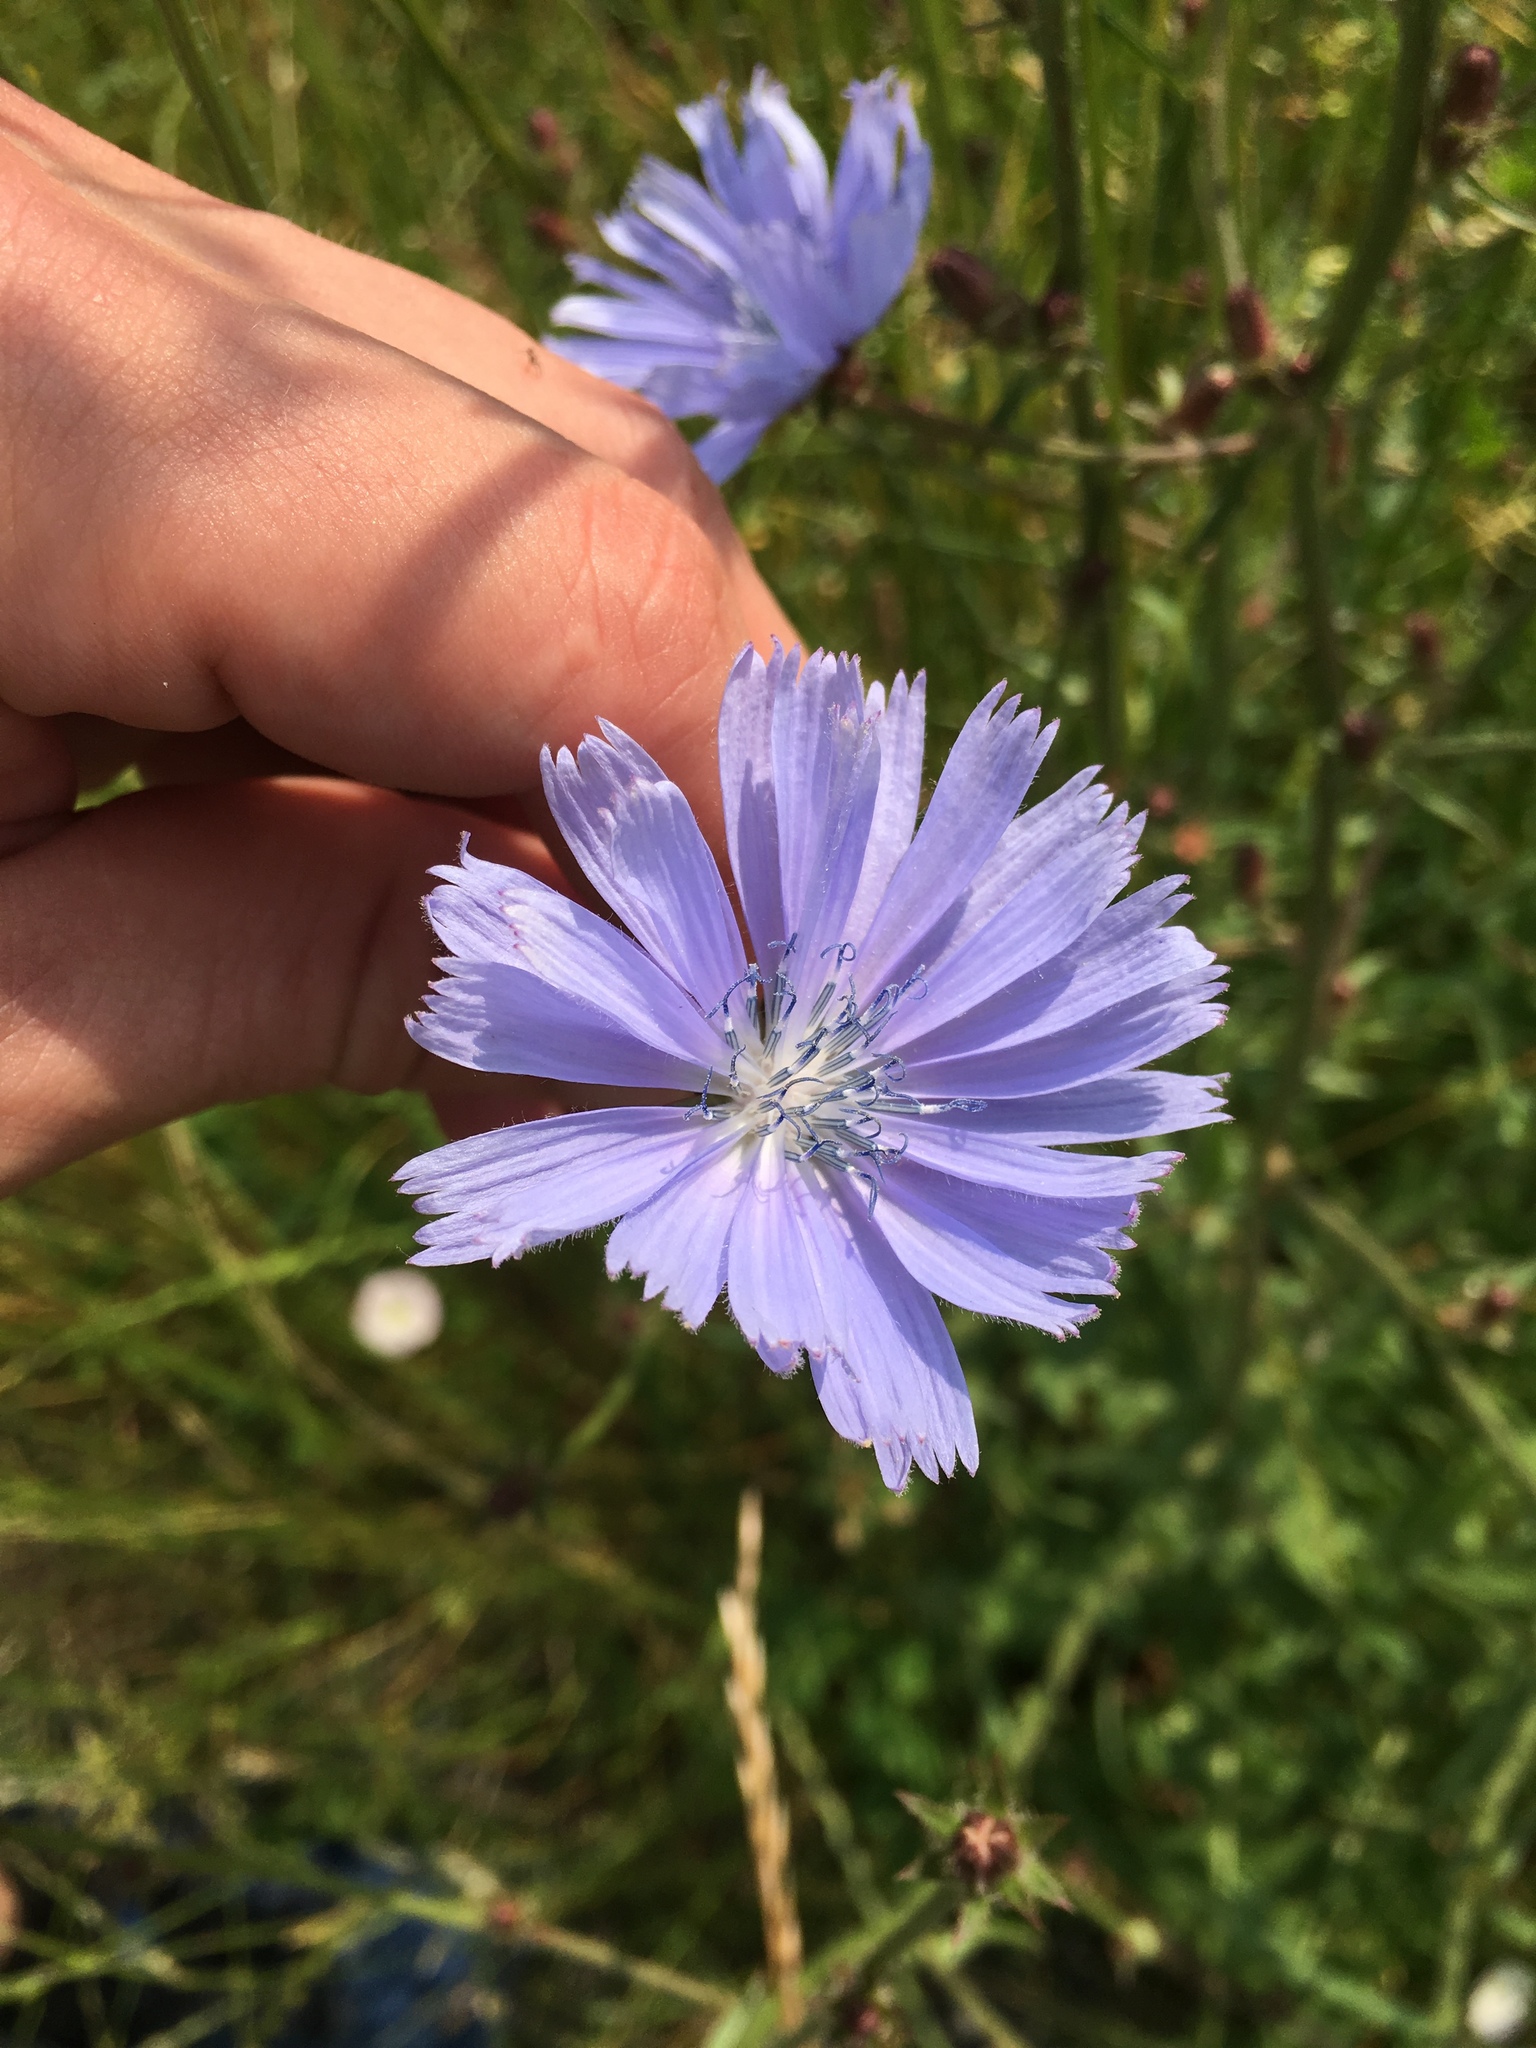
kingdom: Plantae
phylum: Tracheophyta
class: Magnoliopsida
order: Asterales
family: Asteraceae
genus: Cichorium
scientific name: Cichorium intybus
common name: Chicory
